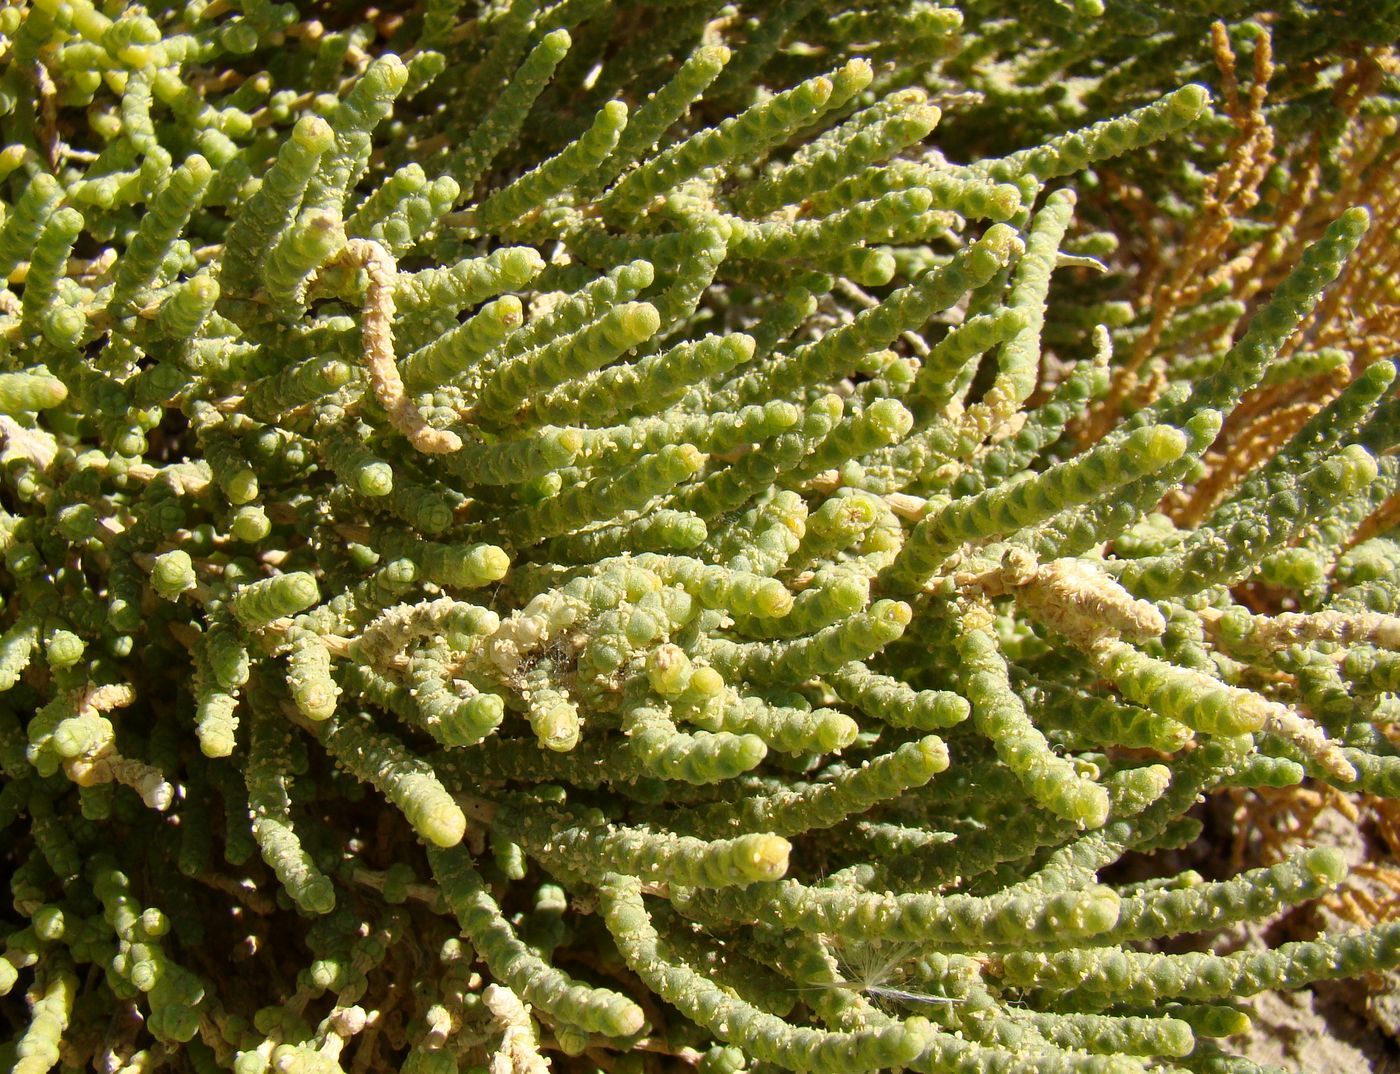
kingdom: Plantae
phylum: Tracheophyta
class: Magnoliopsida
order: Caryophyllales
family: Amaranthaceae
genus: Halostachys
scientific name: Halostachys caspica
